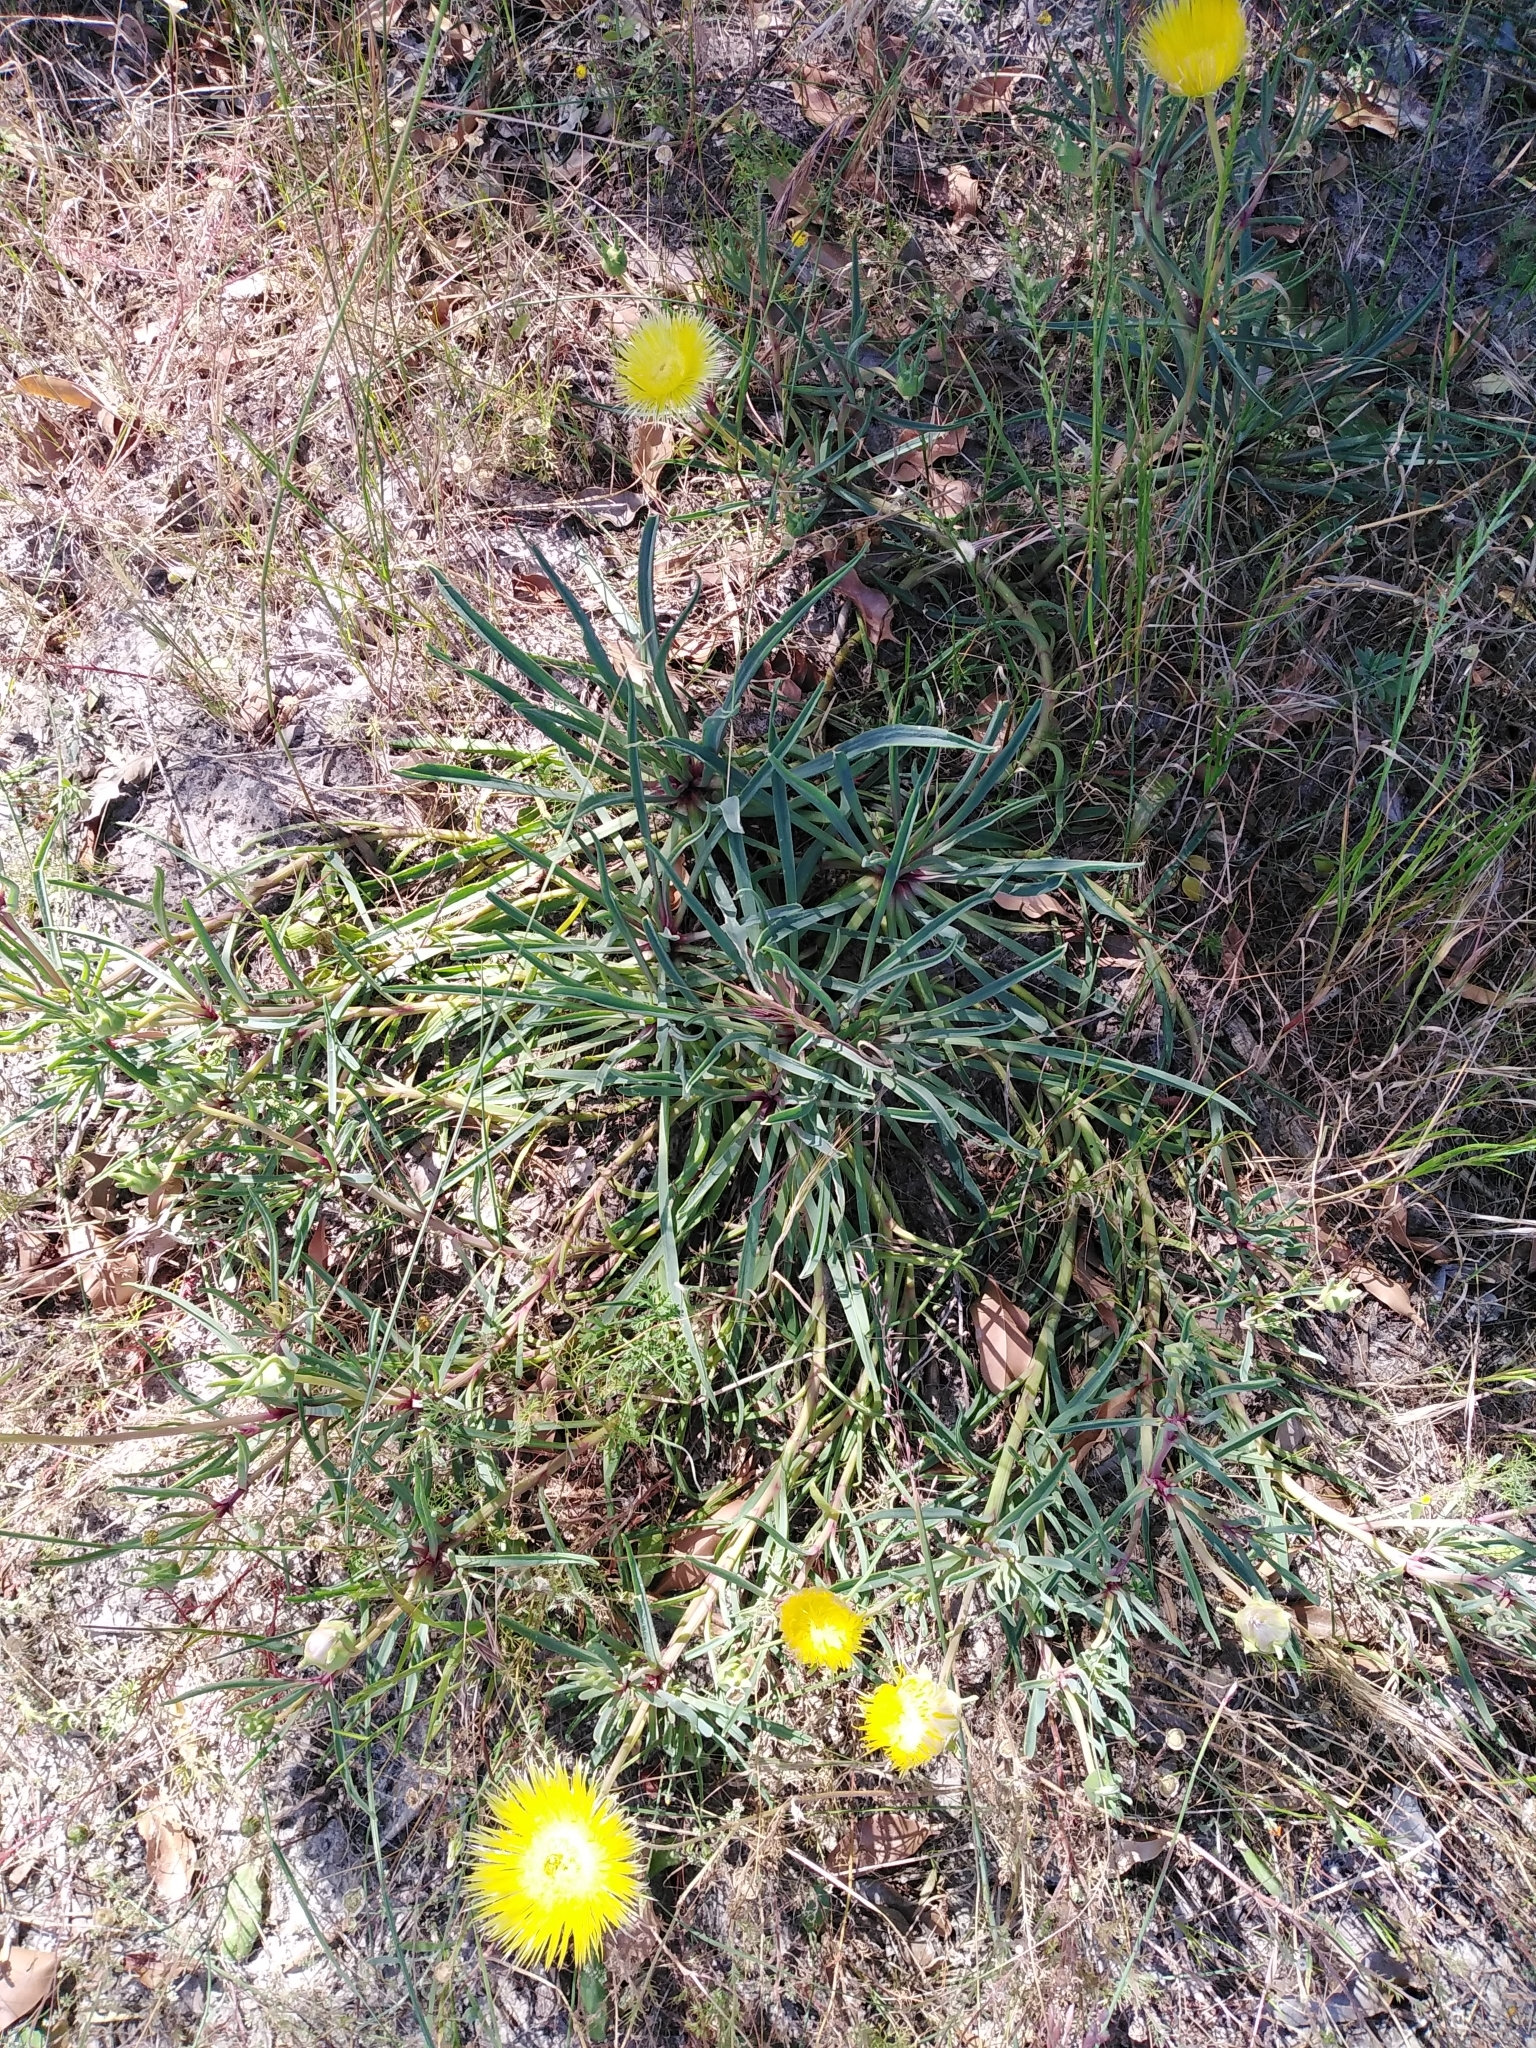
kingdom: Plantae
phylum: Tracheophyta
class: Magnoliopsida
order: Caryophyllales
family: Aizoaceae
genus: Conicosia
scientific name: Conicosia pugioniformis
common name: Narrow-leaved iceplant
